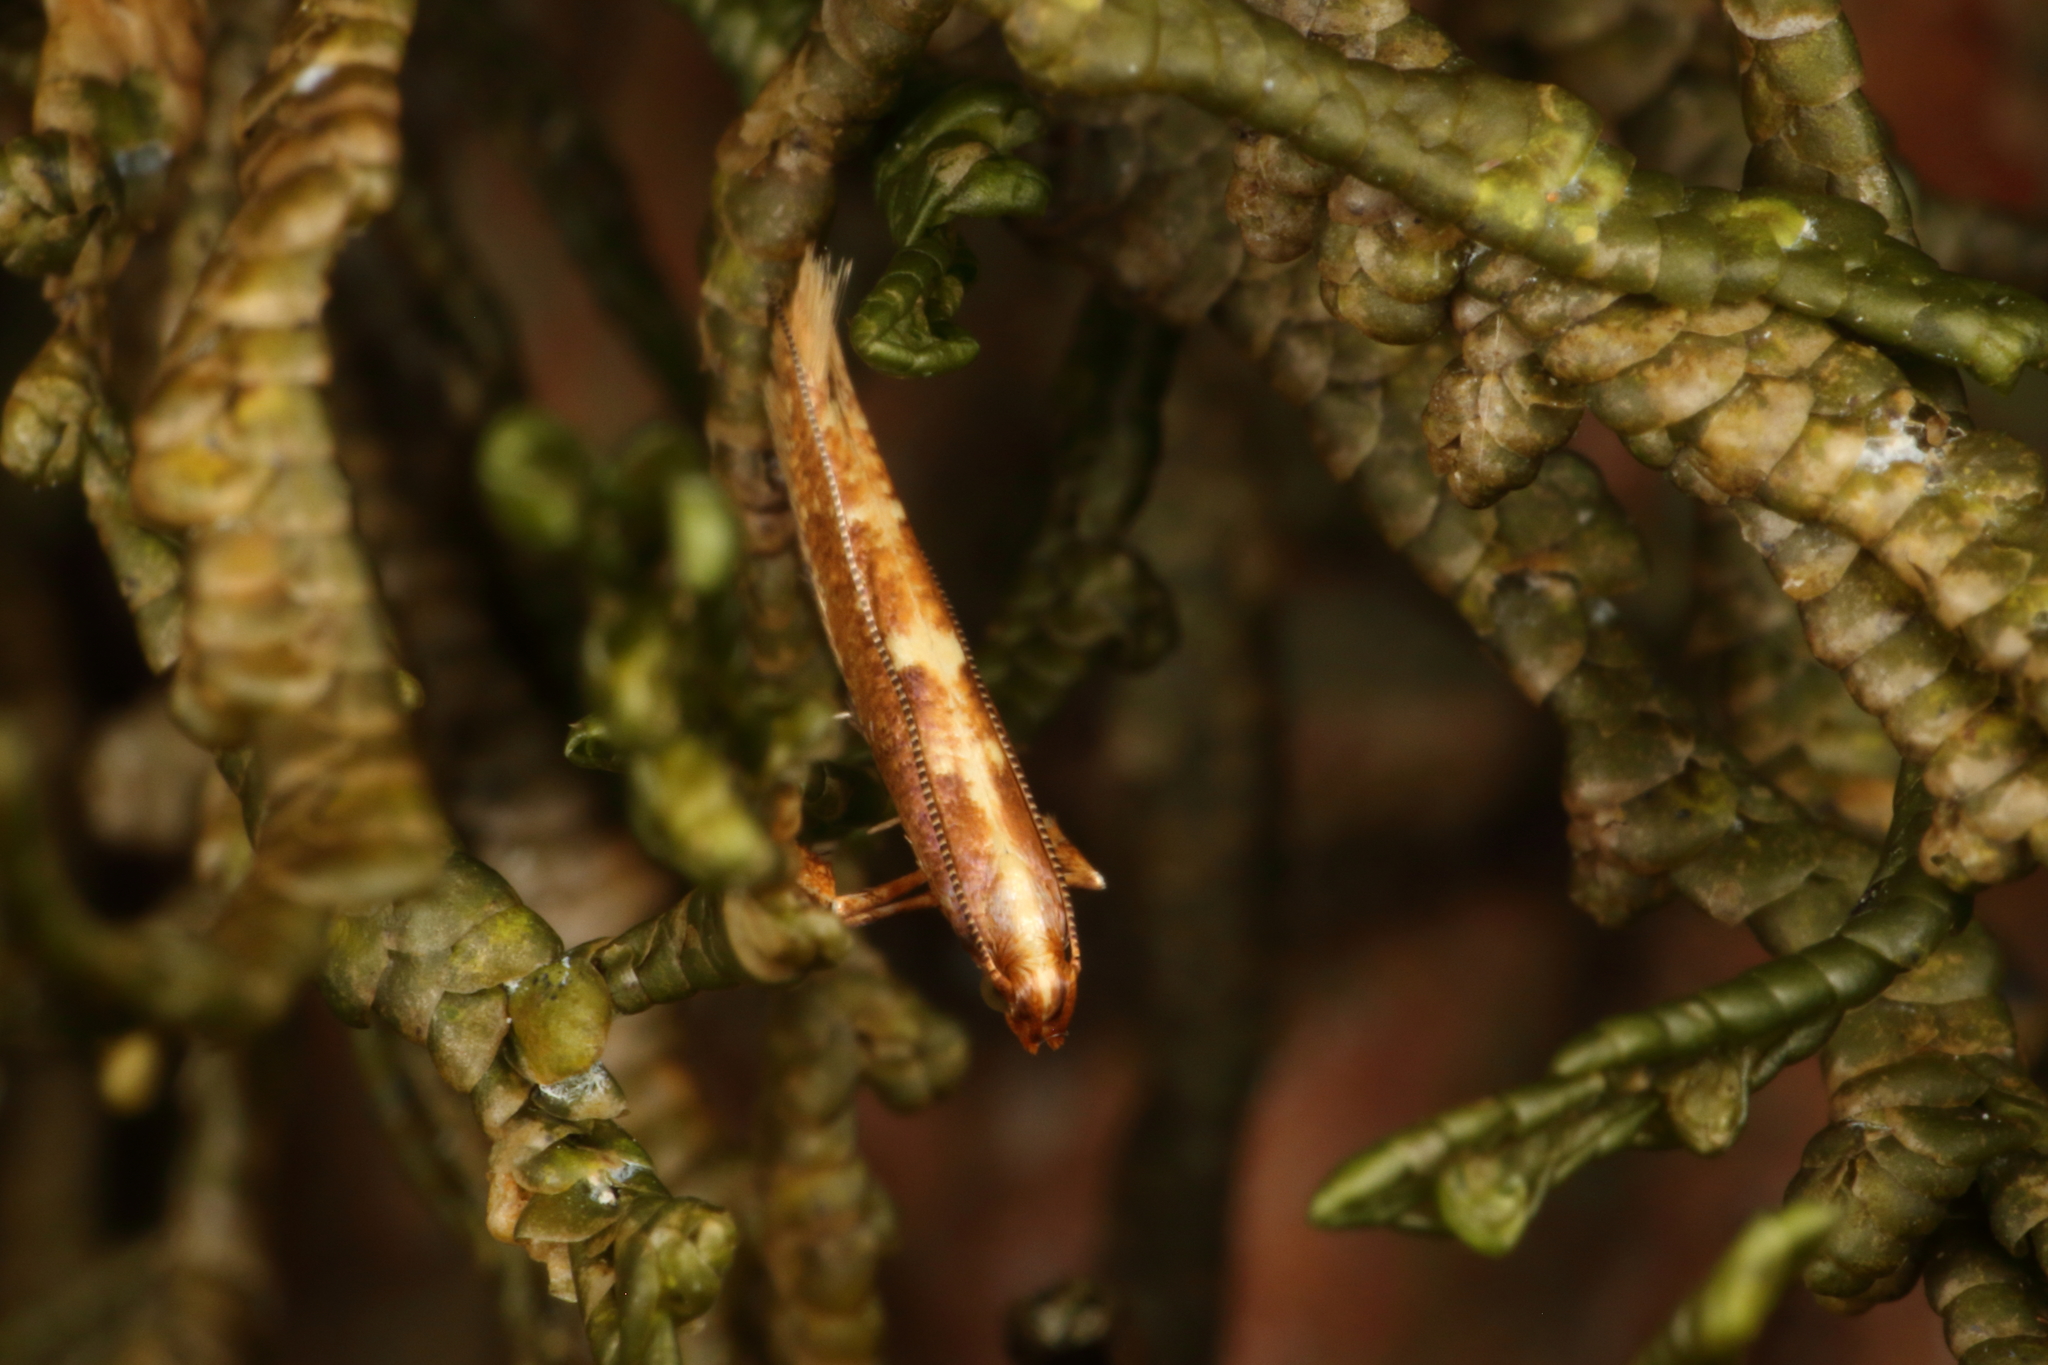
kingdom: Animalia
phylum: Arthropoda
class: Insecta
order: Lepidoptera
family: Gracillariidae
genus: Caloptilia
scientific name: Caloptilia selenitis
